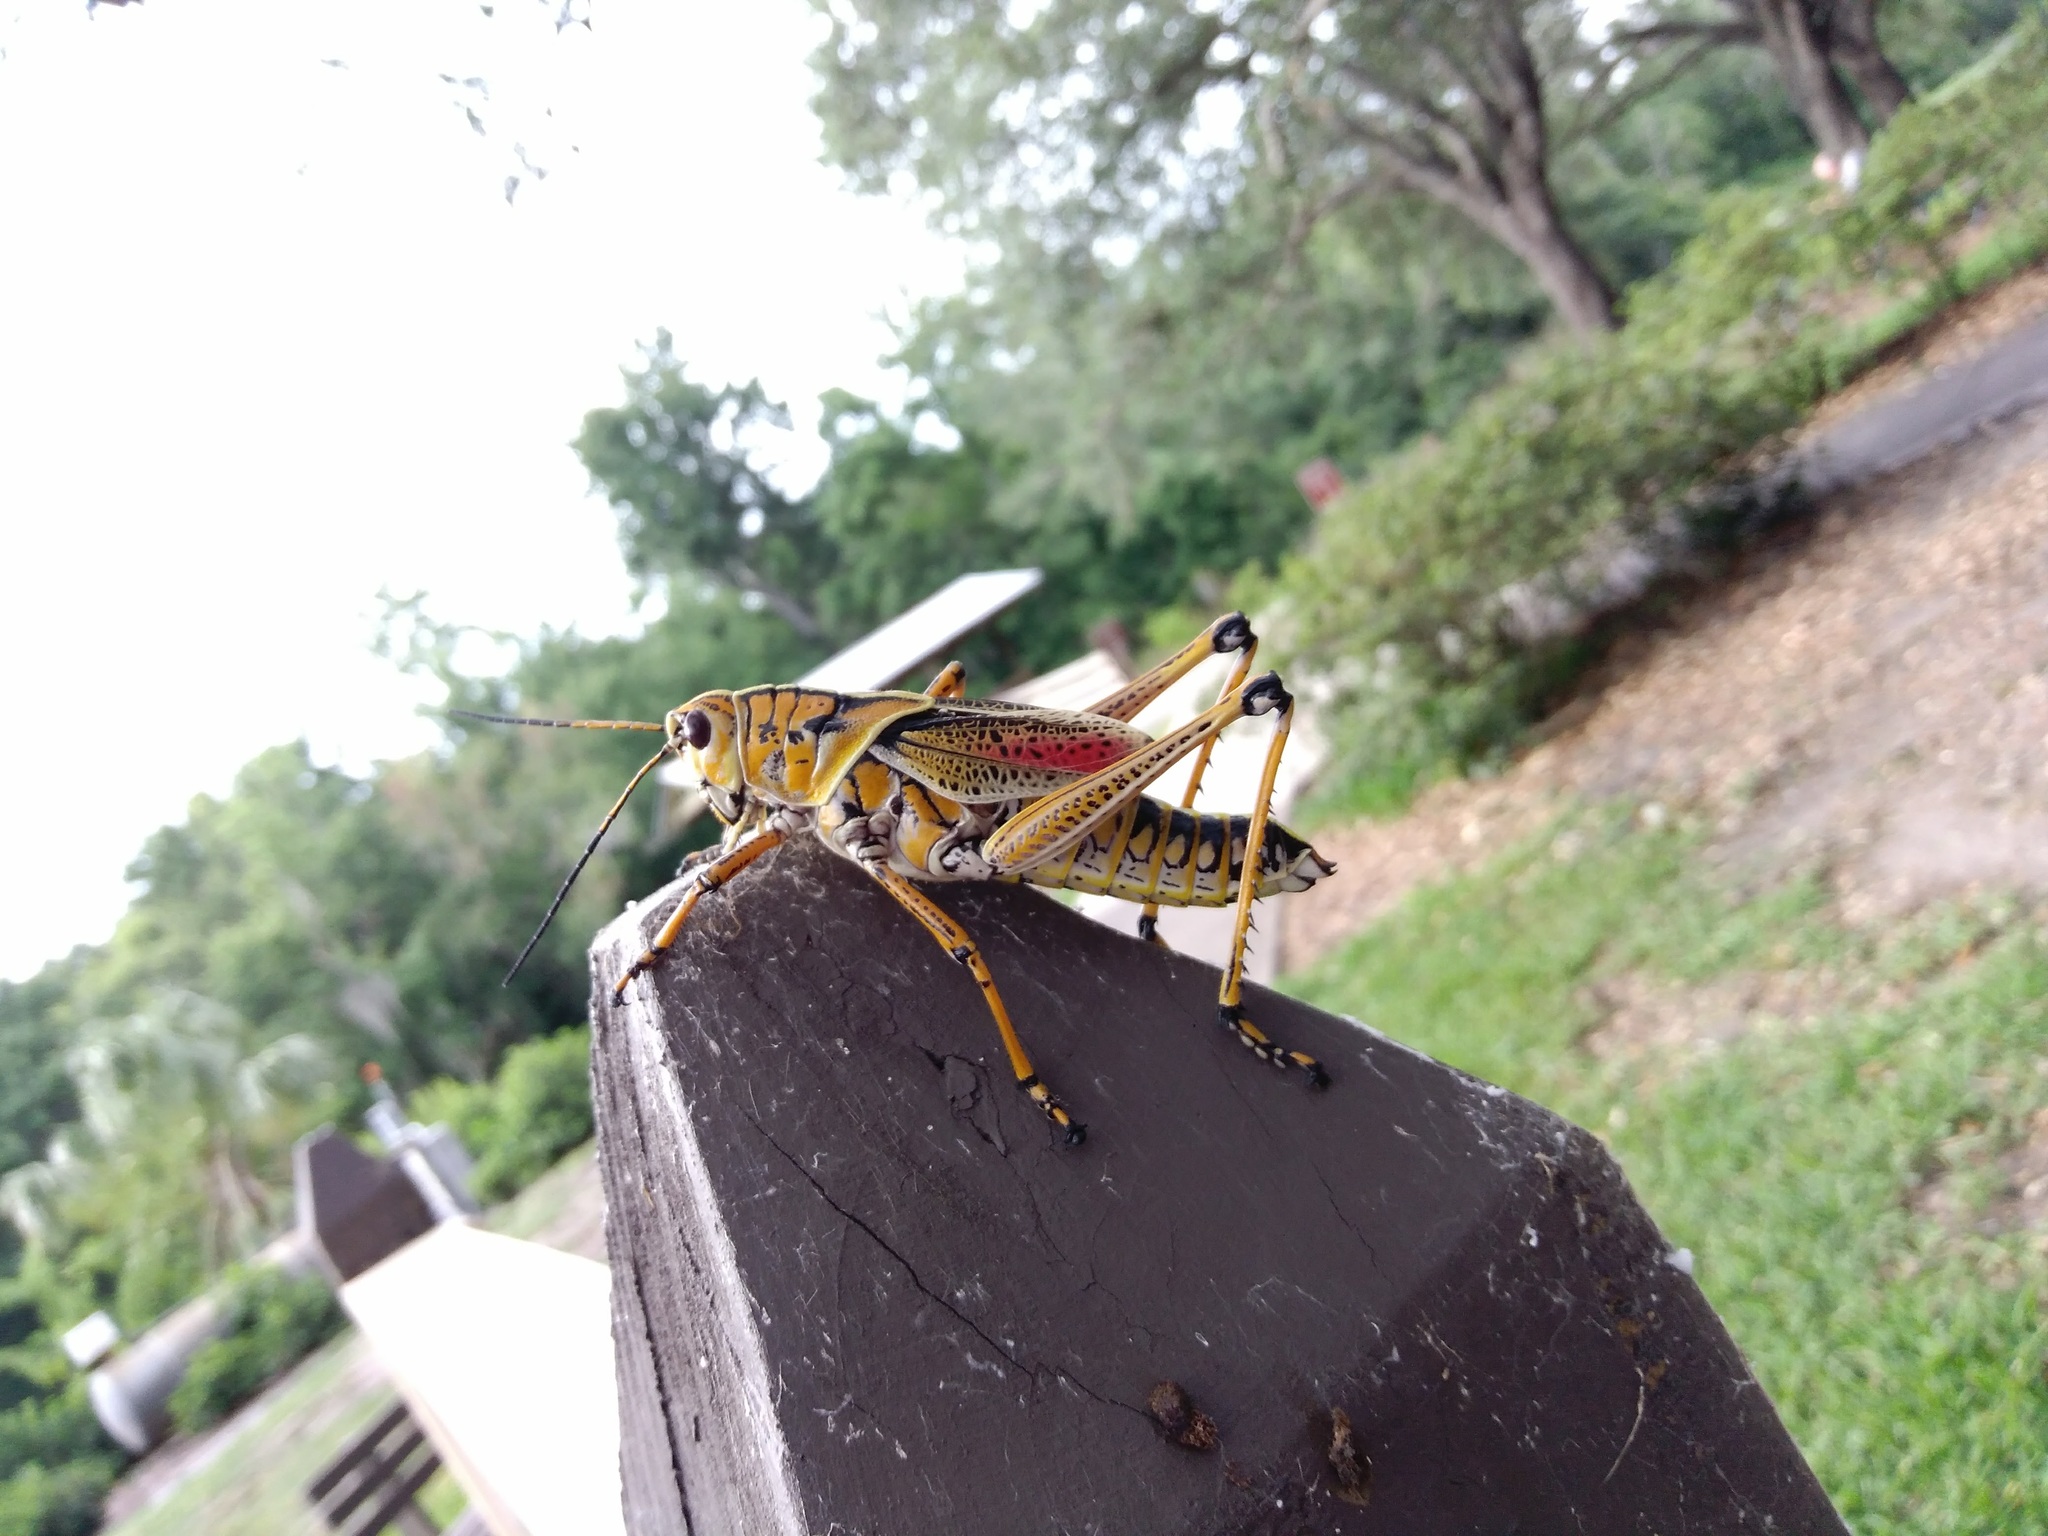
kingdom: Animalia
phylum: Arthropoda
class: Insecta
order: Orthoptera
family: Romaleidae
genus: Romalea
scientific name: Romalea microptera
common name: Eastern lubber grasshopper
